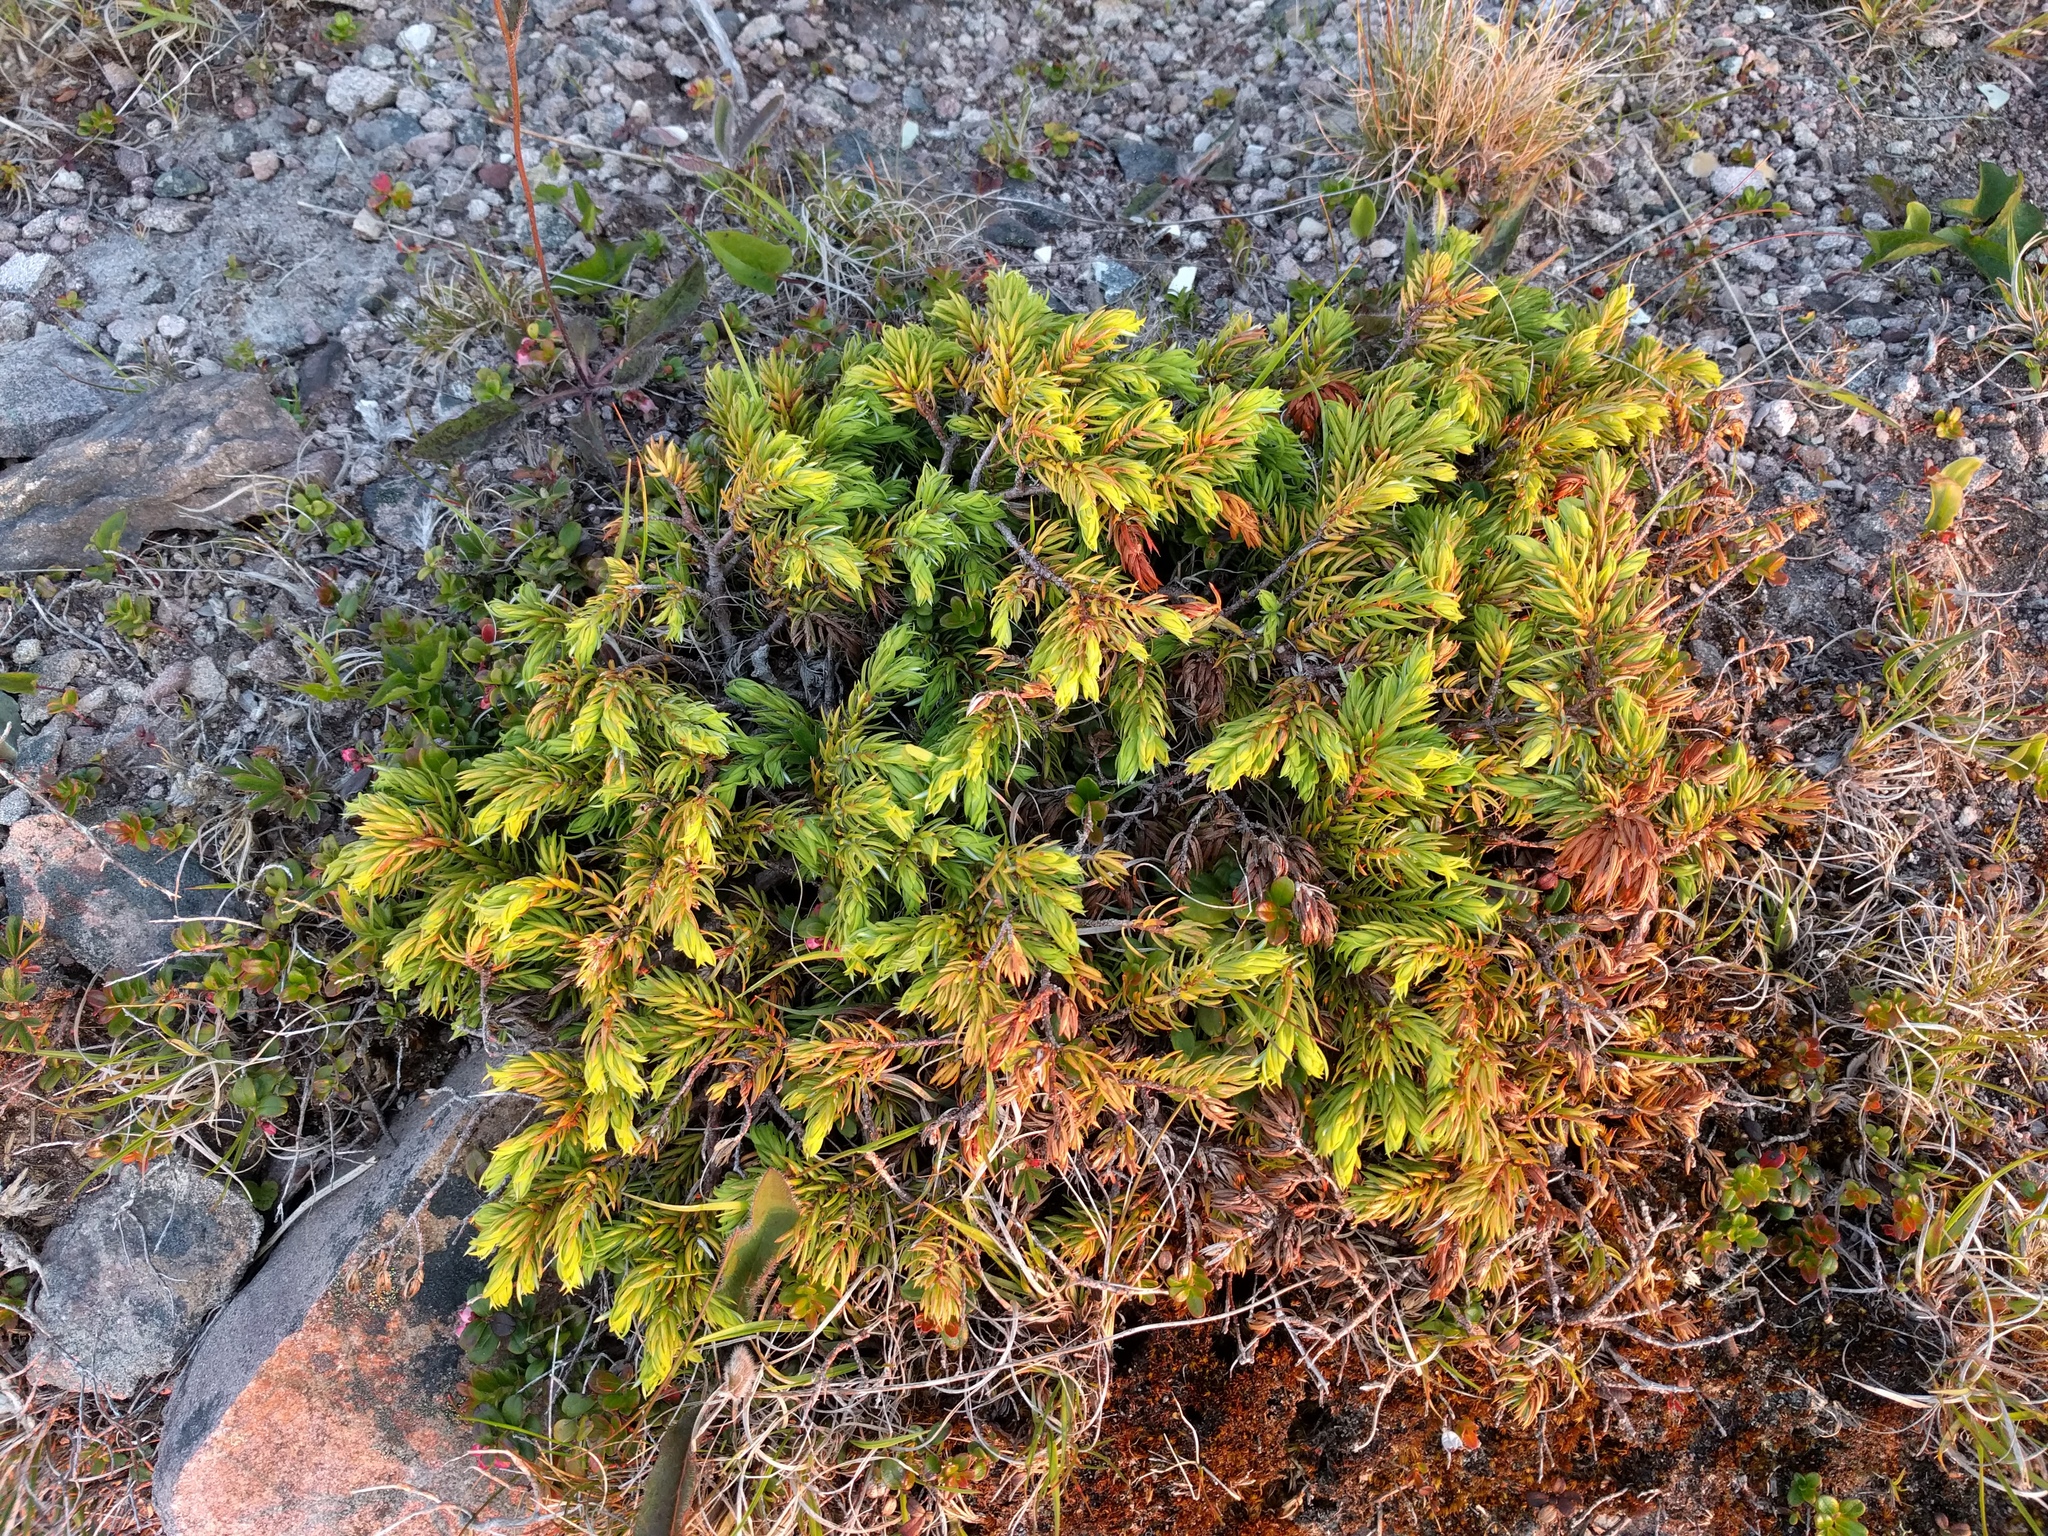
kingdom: Plantae
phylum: Tracheophyta
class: Pinopsida
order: Pinales
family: Cupressaceae
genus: Juniperus
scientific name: Juniperus communis
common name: Common juniper
